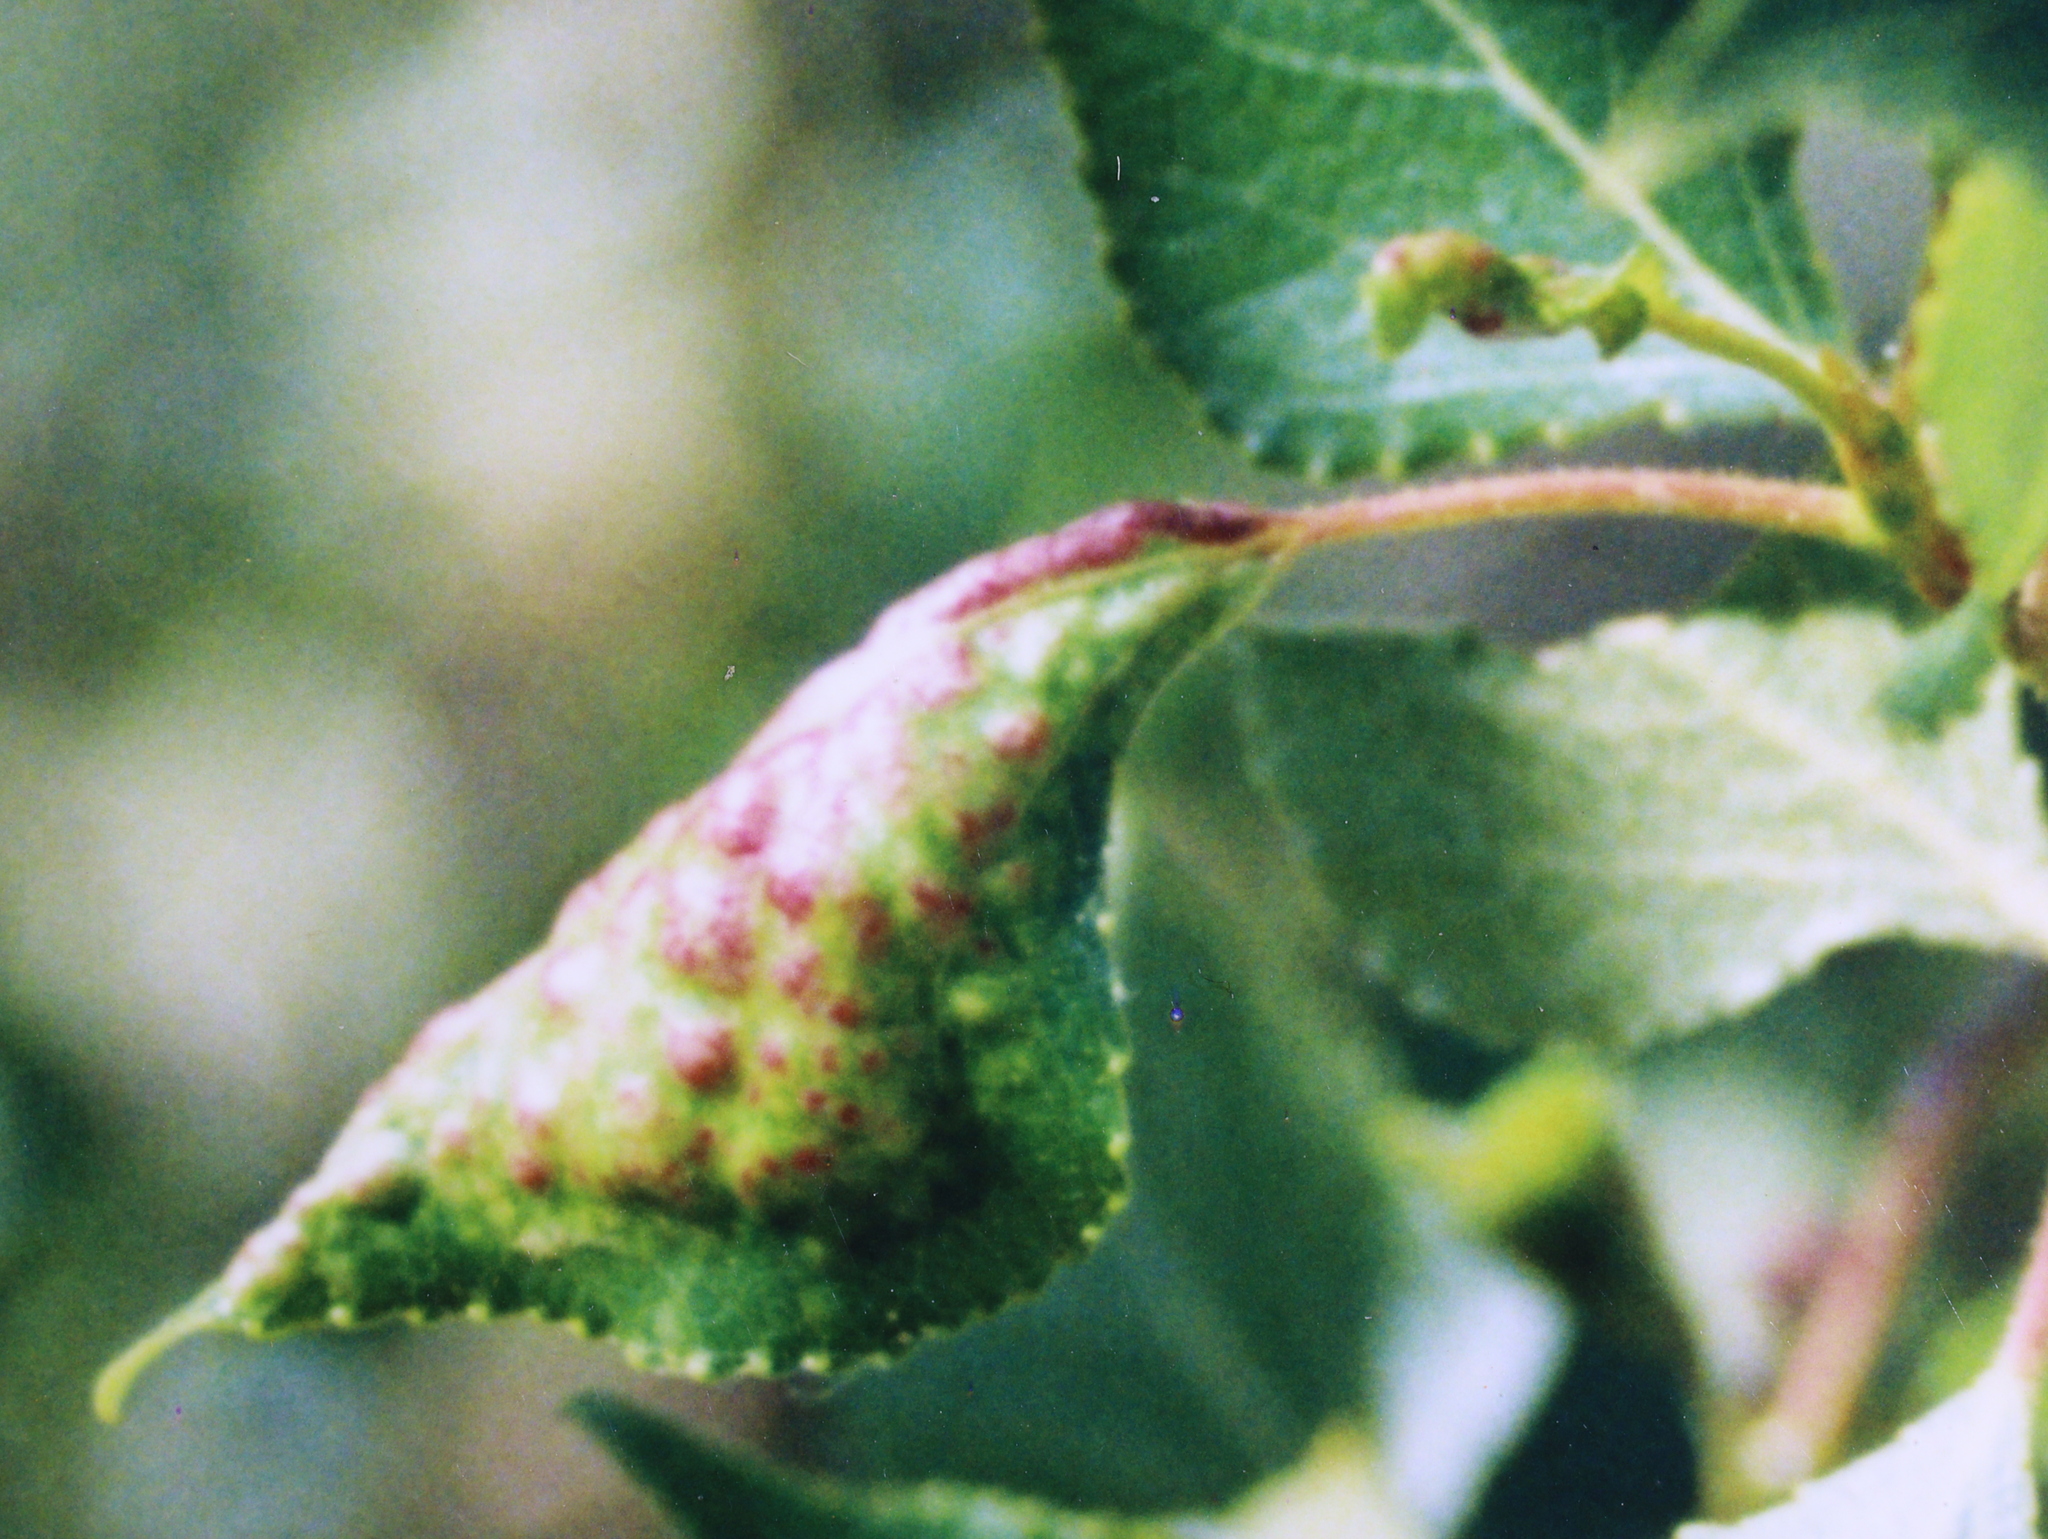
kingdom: Animalia
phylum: Arthropoda
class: Insecta
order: Hemiptera
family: Aphididae
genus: Thecabius
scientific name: Thecabius affinis
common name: Aphid
